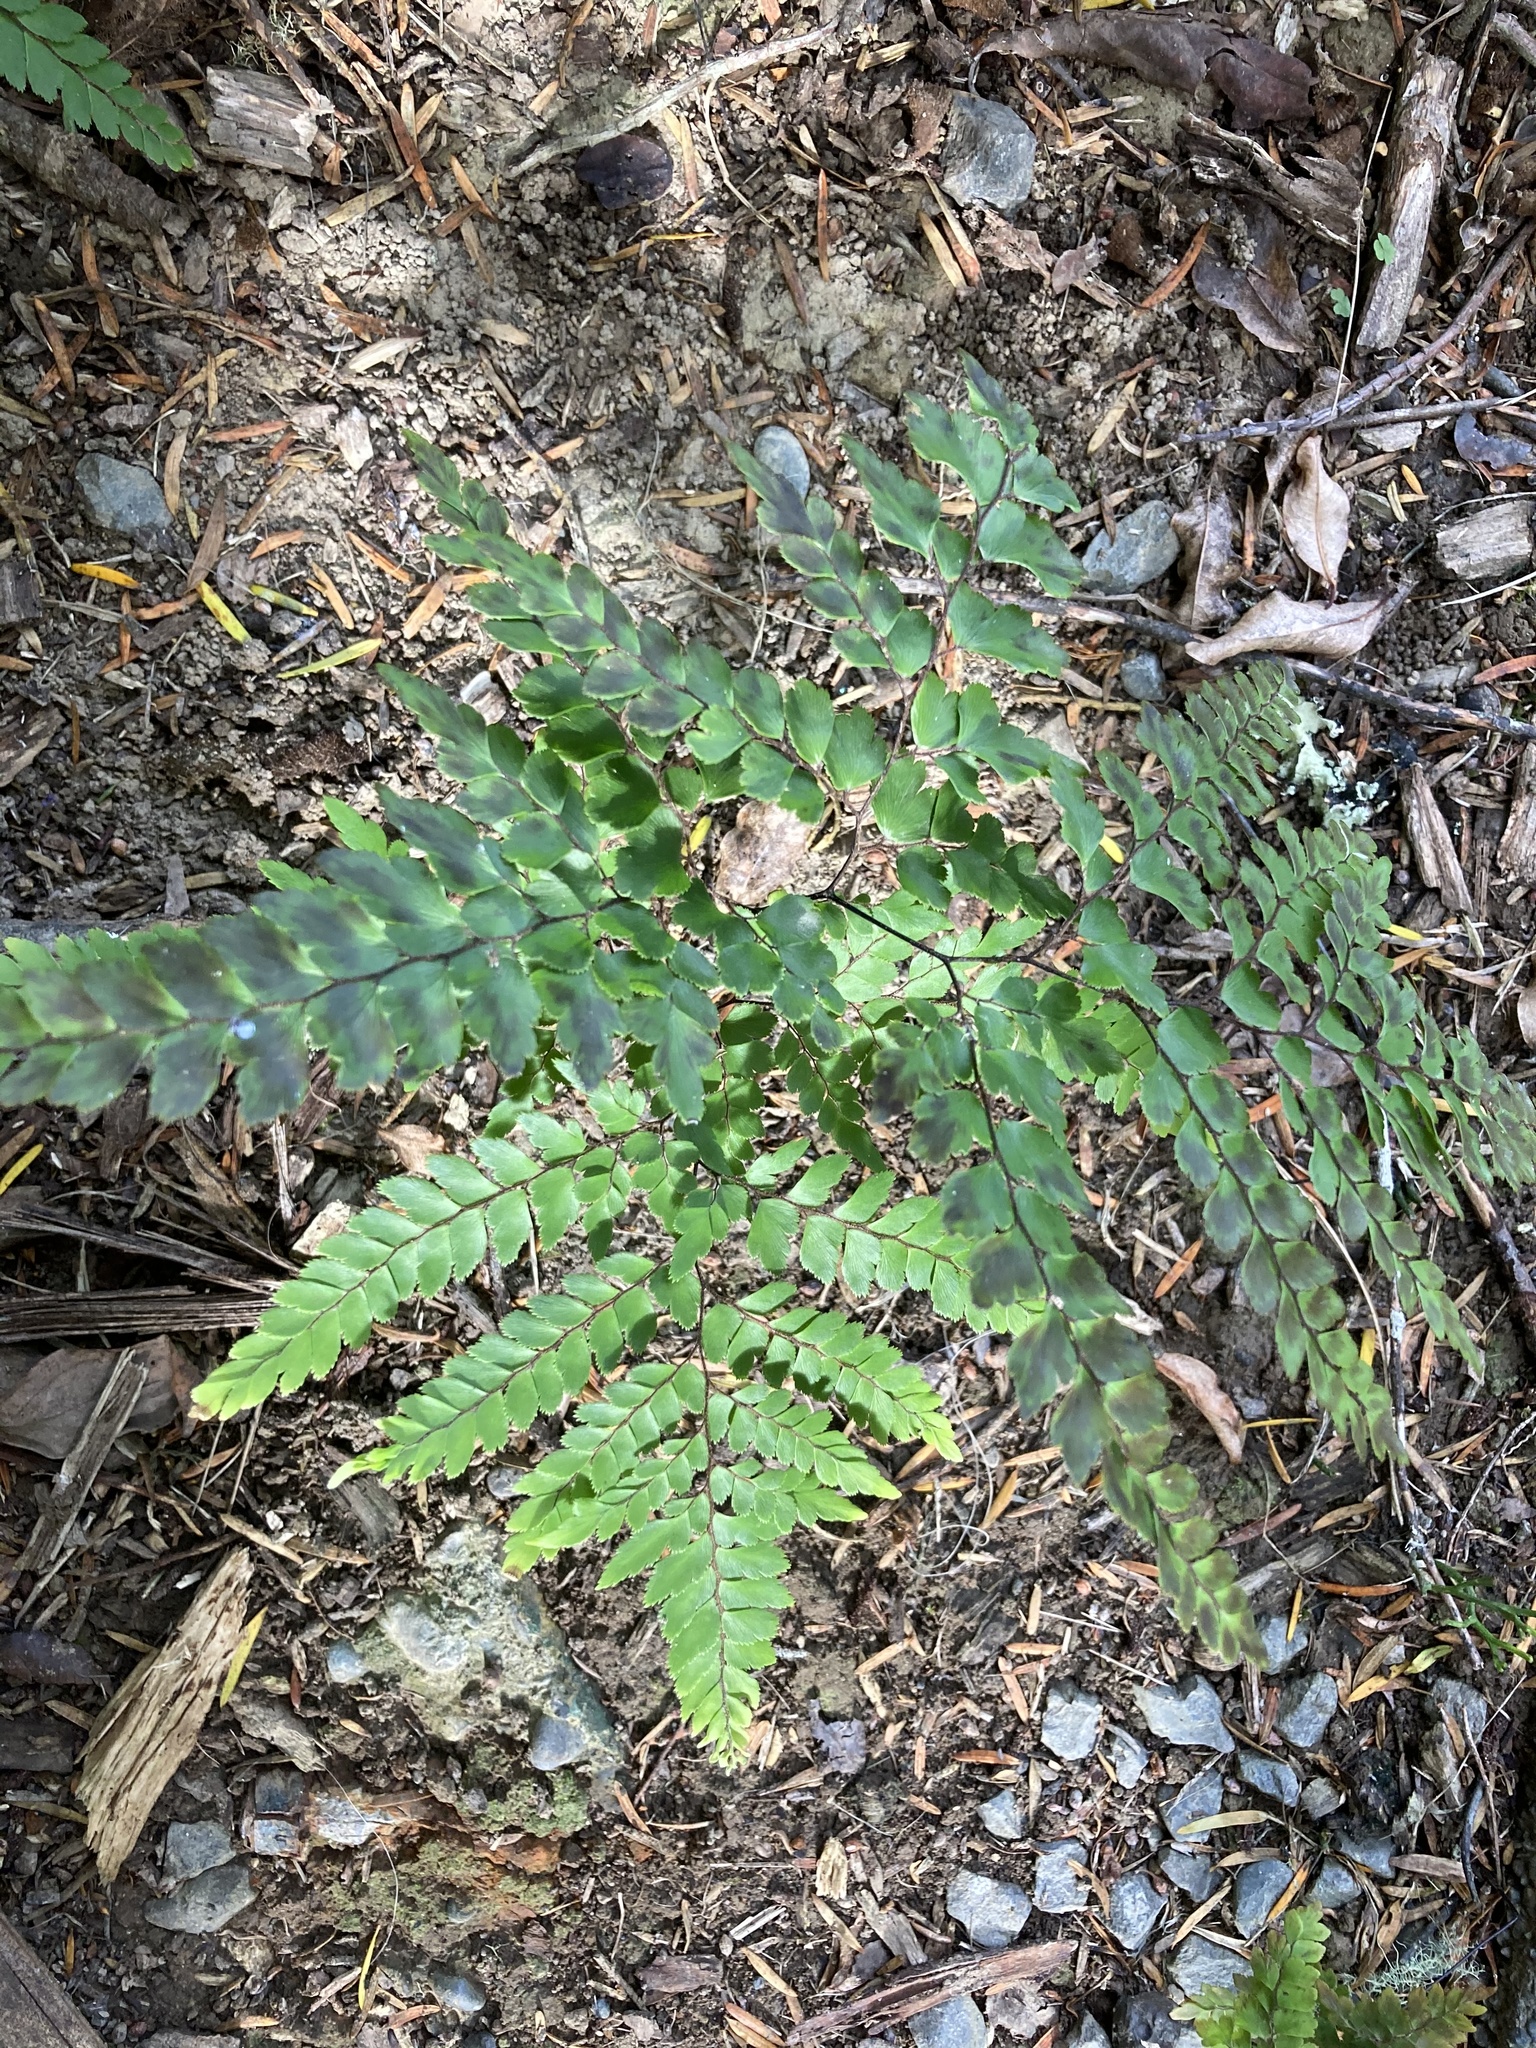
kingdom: Plantae
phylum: Tracheophyta
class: Polypodiopsida
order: Polypodiales
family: Pteridaceae
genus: Adiantum
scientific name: Adiantum formosum
